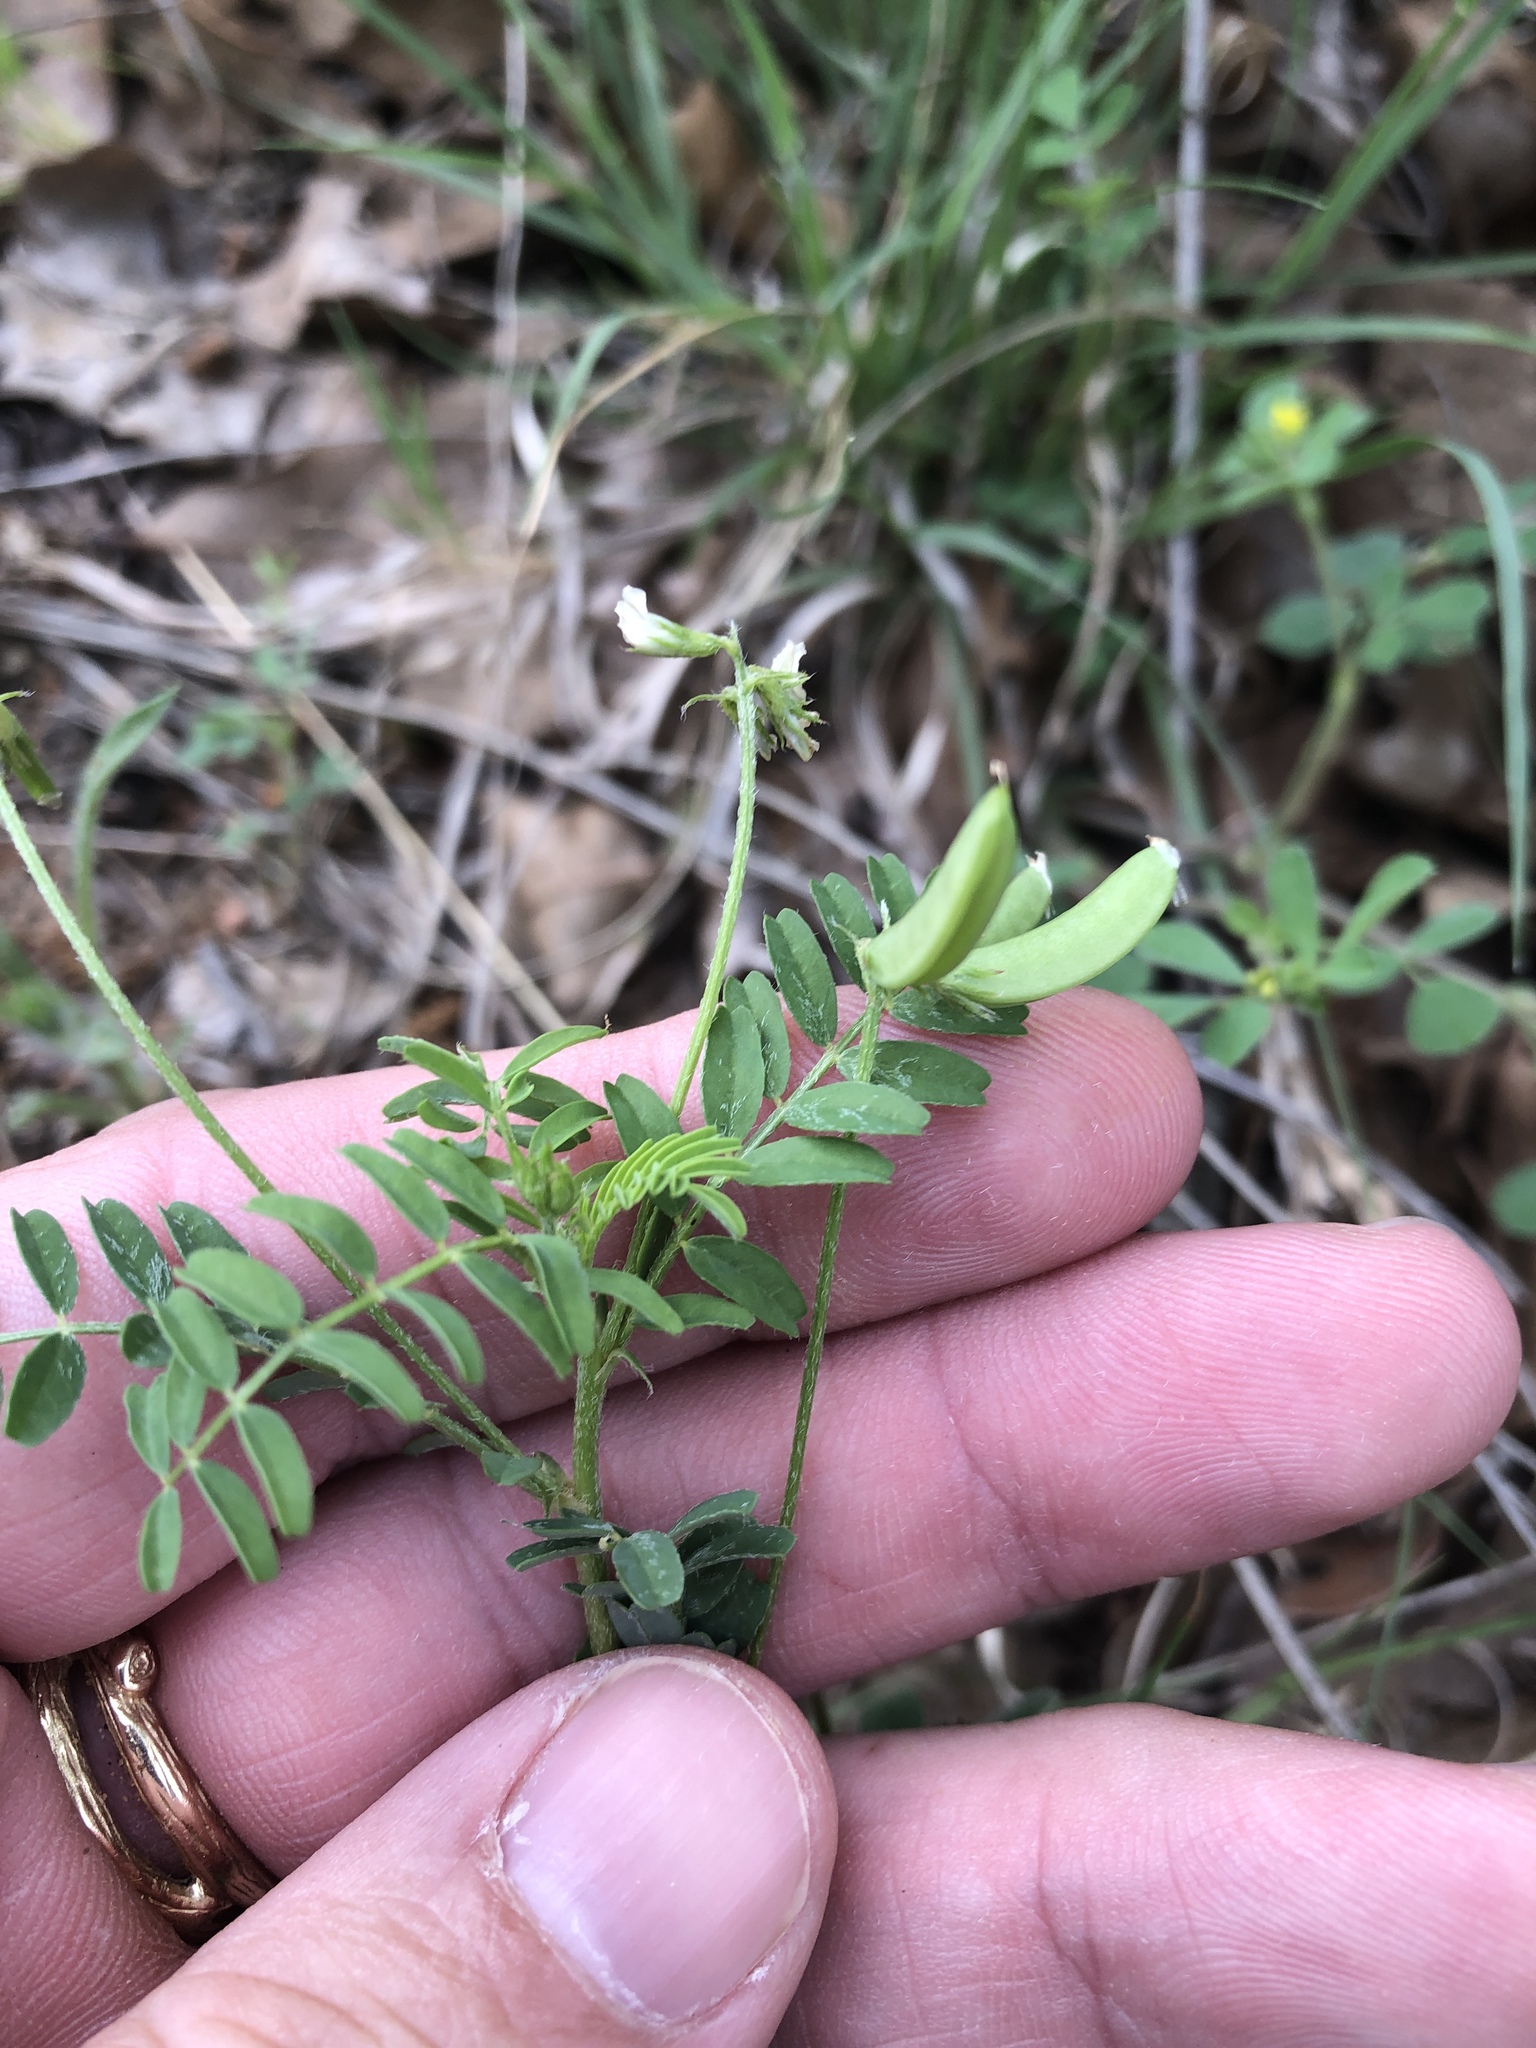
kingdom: Plantae
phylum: Tracheophyta
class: Magnoliopsida
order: Fabales
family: Fabaceae
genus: Astragalus
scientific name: Astragalus nuttallianus
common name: Smallflowered milkvetch
